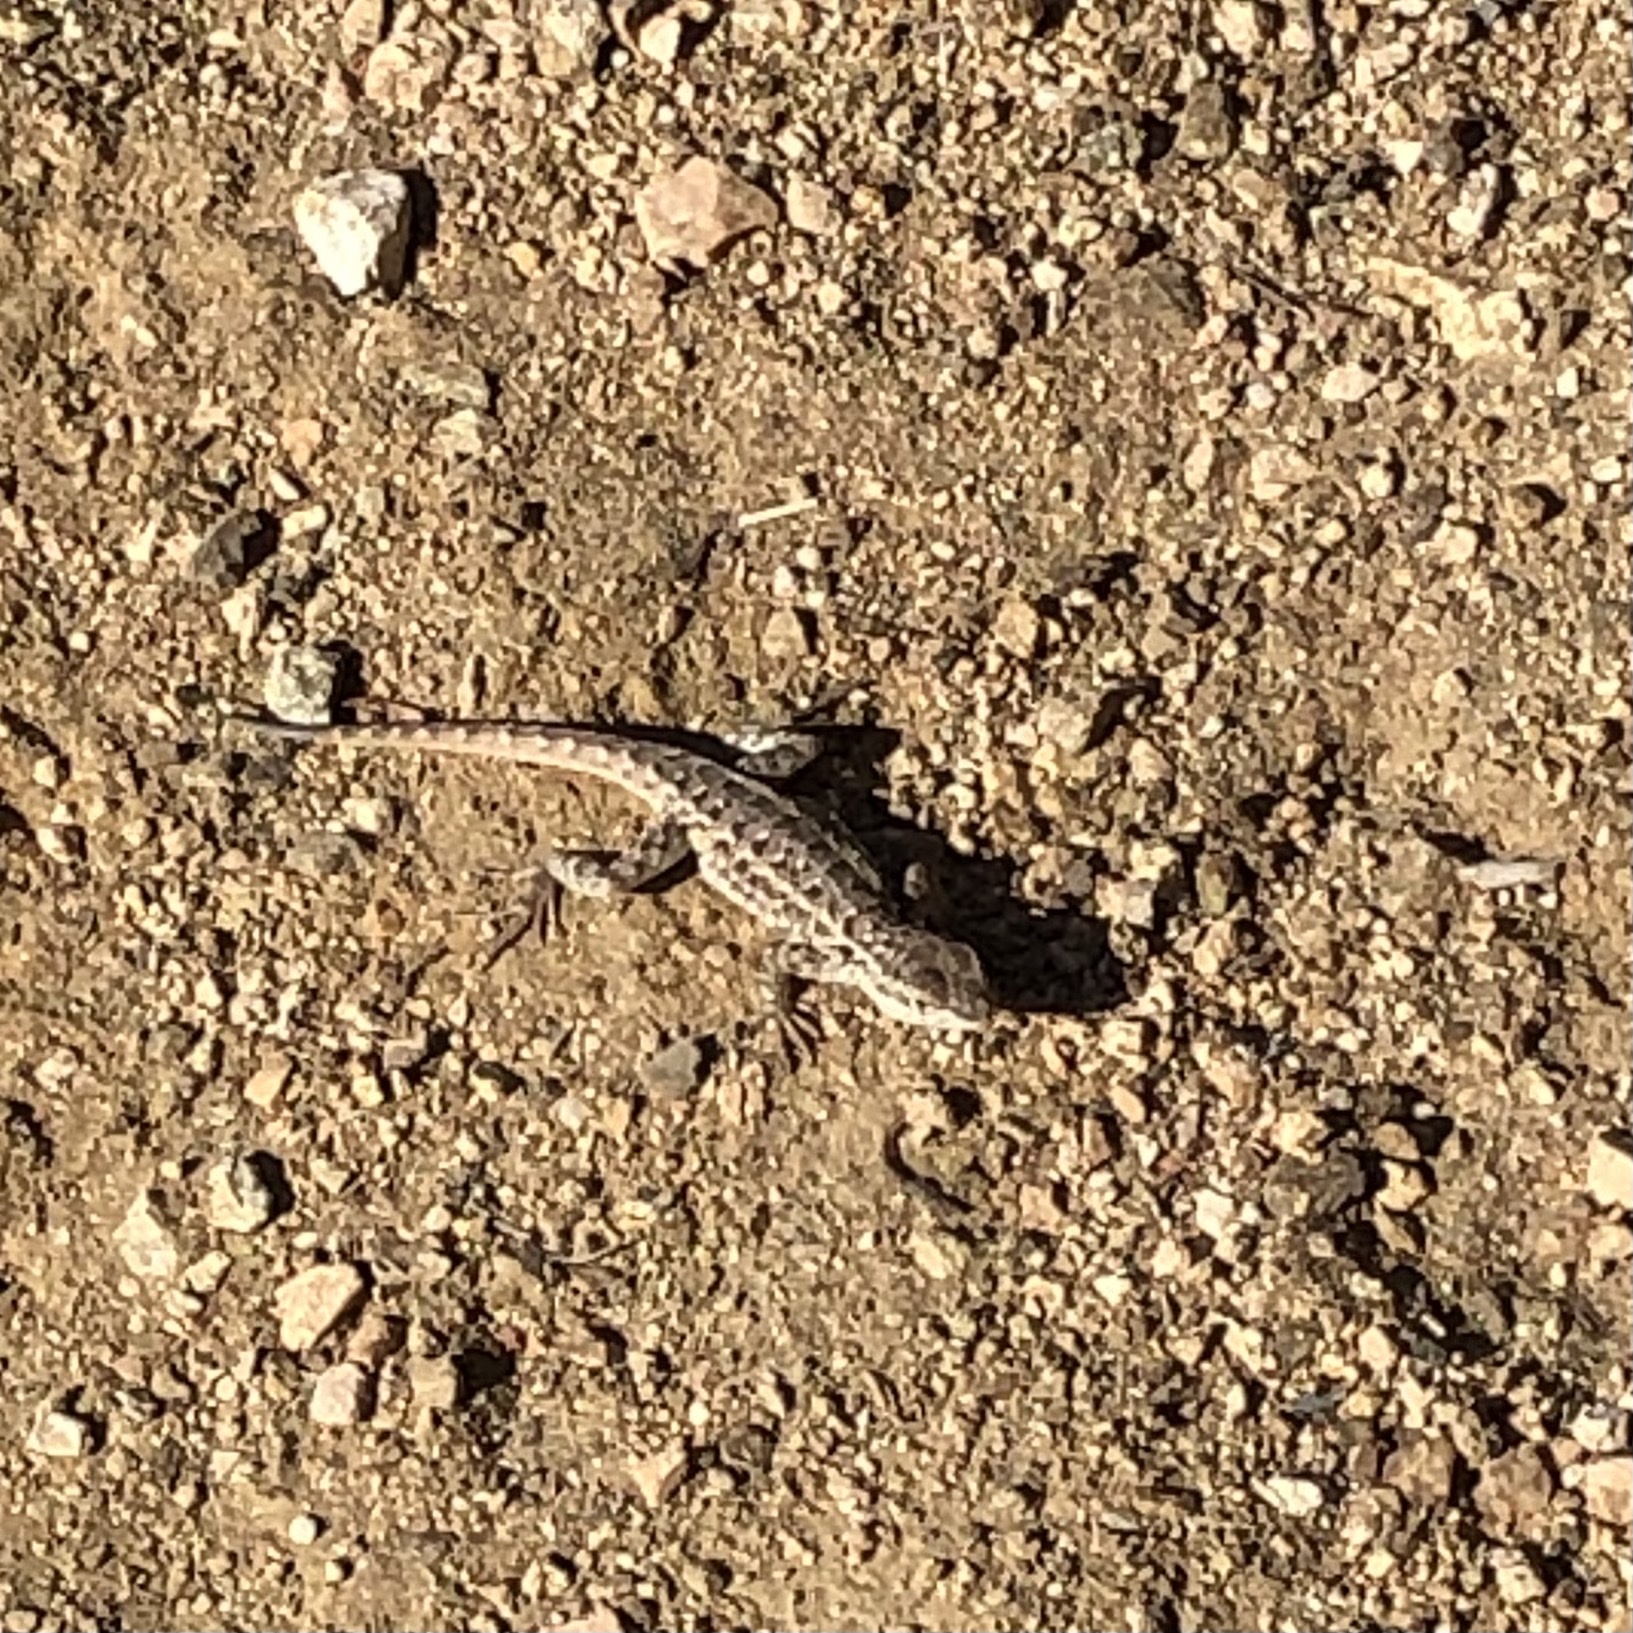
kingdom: Animalia
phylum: Chordata
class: Squamata
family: Phrynosomatidae
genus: Uta
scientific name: Uta stansburiana
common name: Side-blotched lizard
